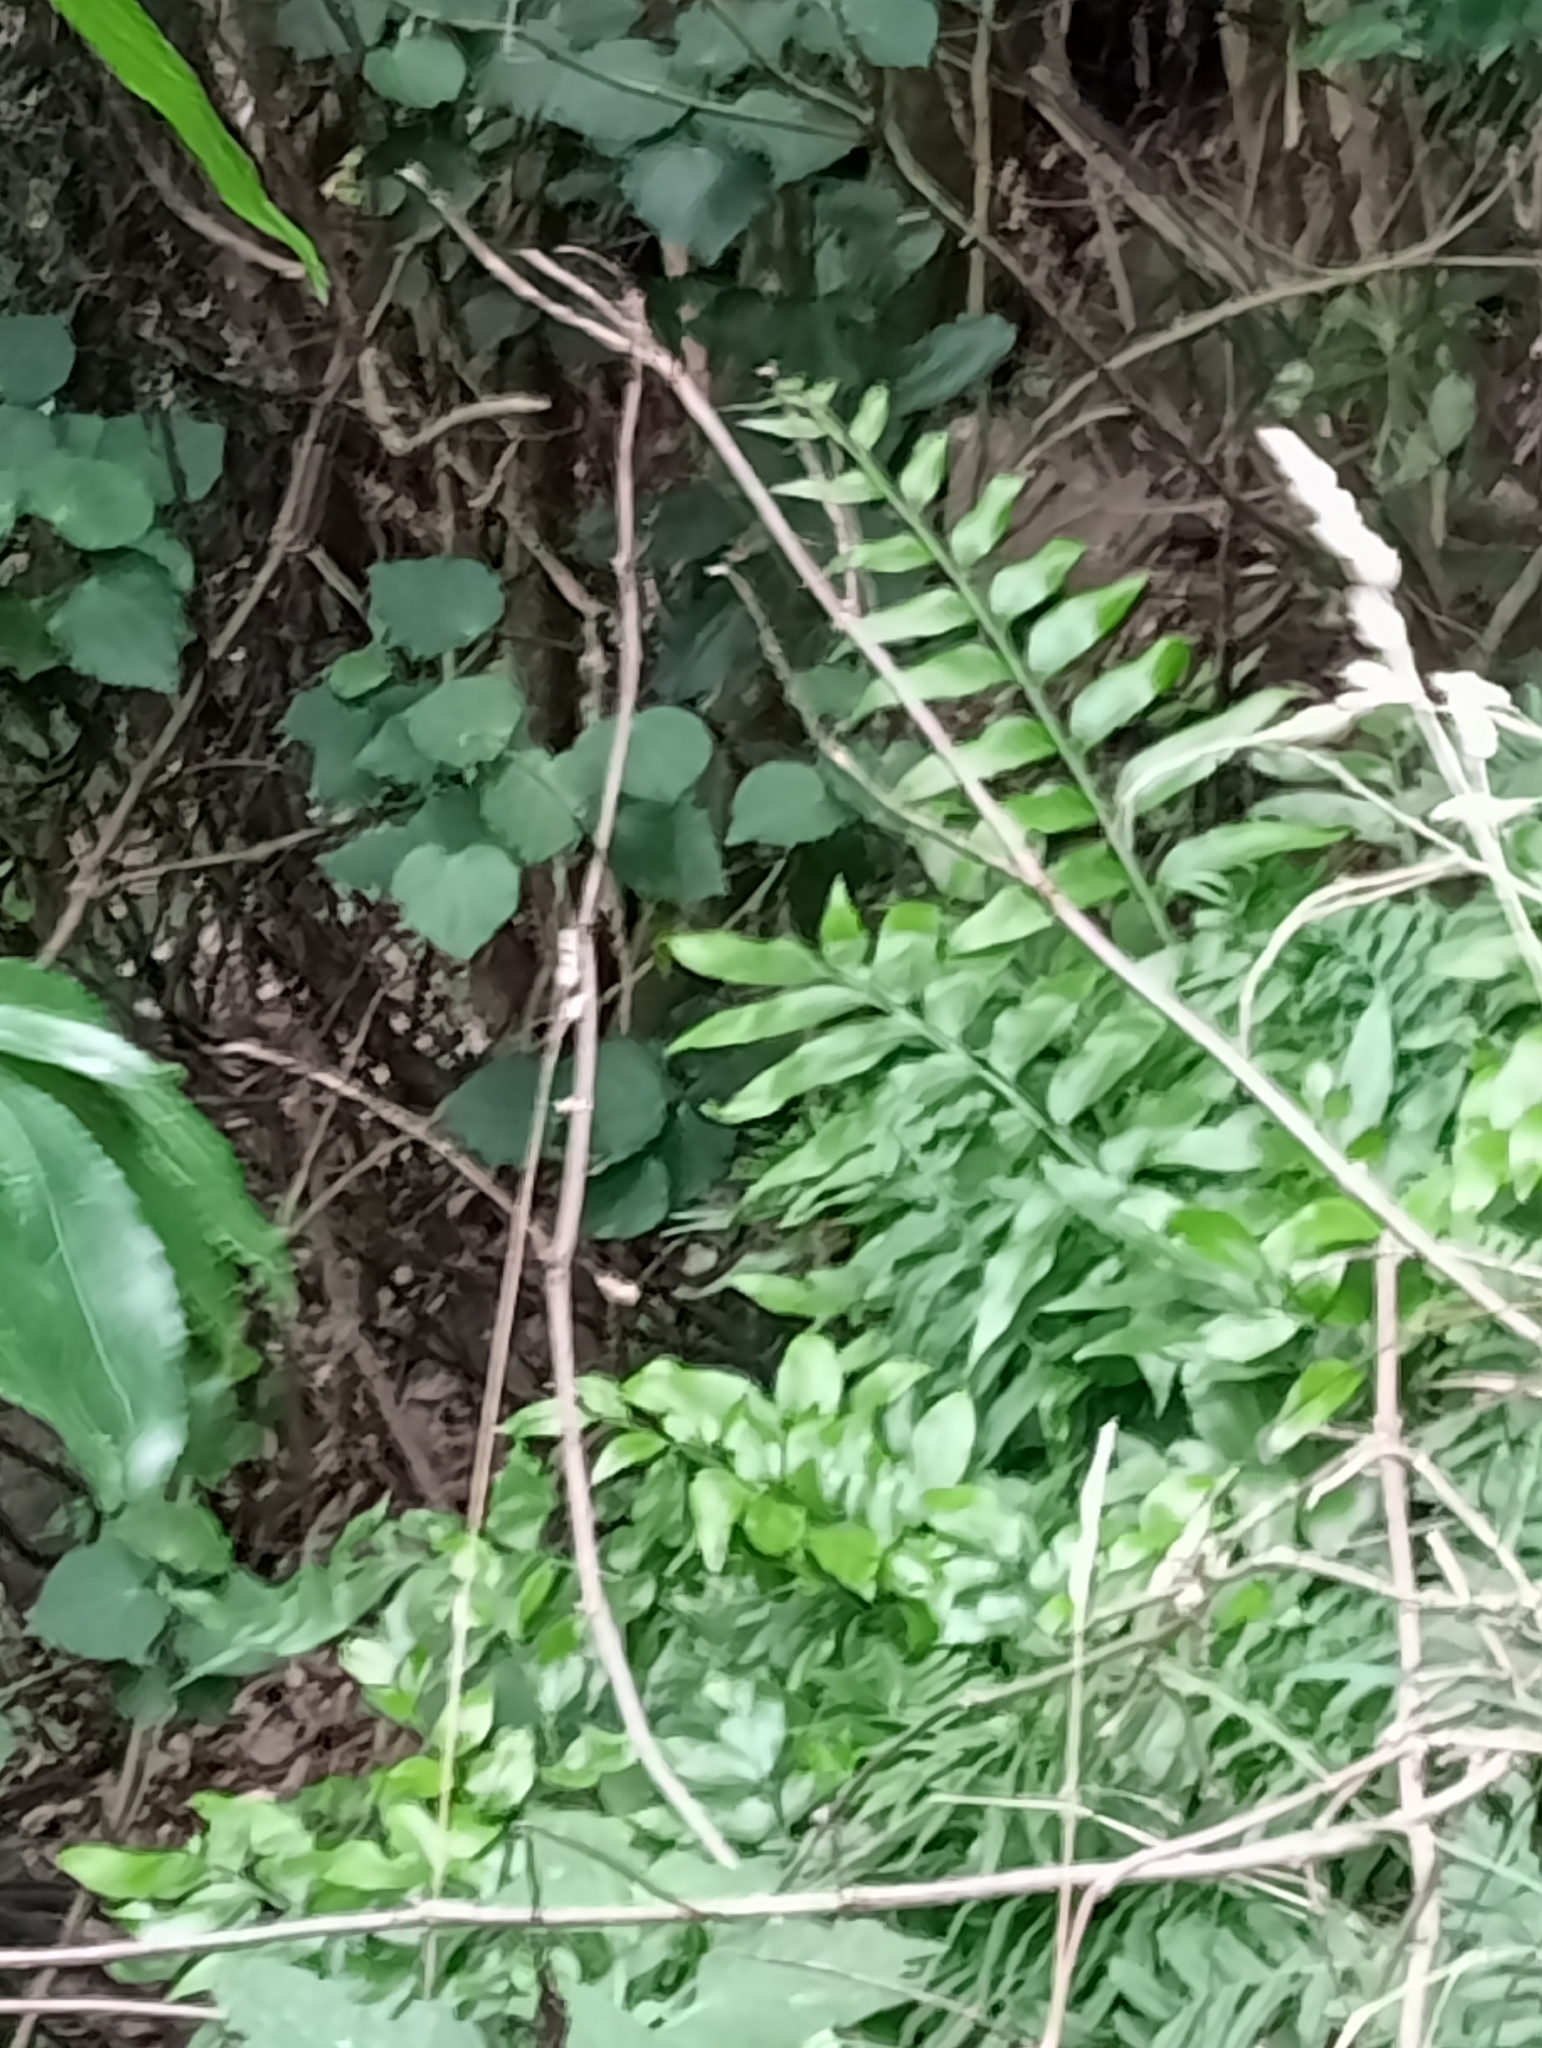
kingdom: Plantae
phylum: Tracheophyta
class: Polypodiopsida
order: Polypodiales
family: Aspleniaceae
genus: Asplenium
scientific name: Asplenium oblongifolium
